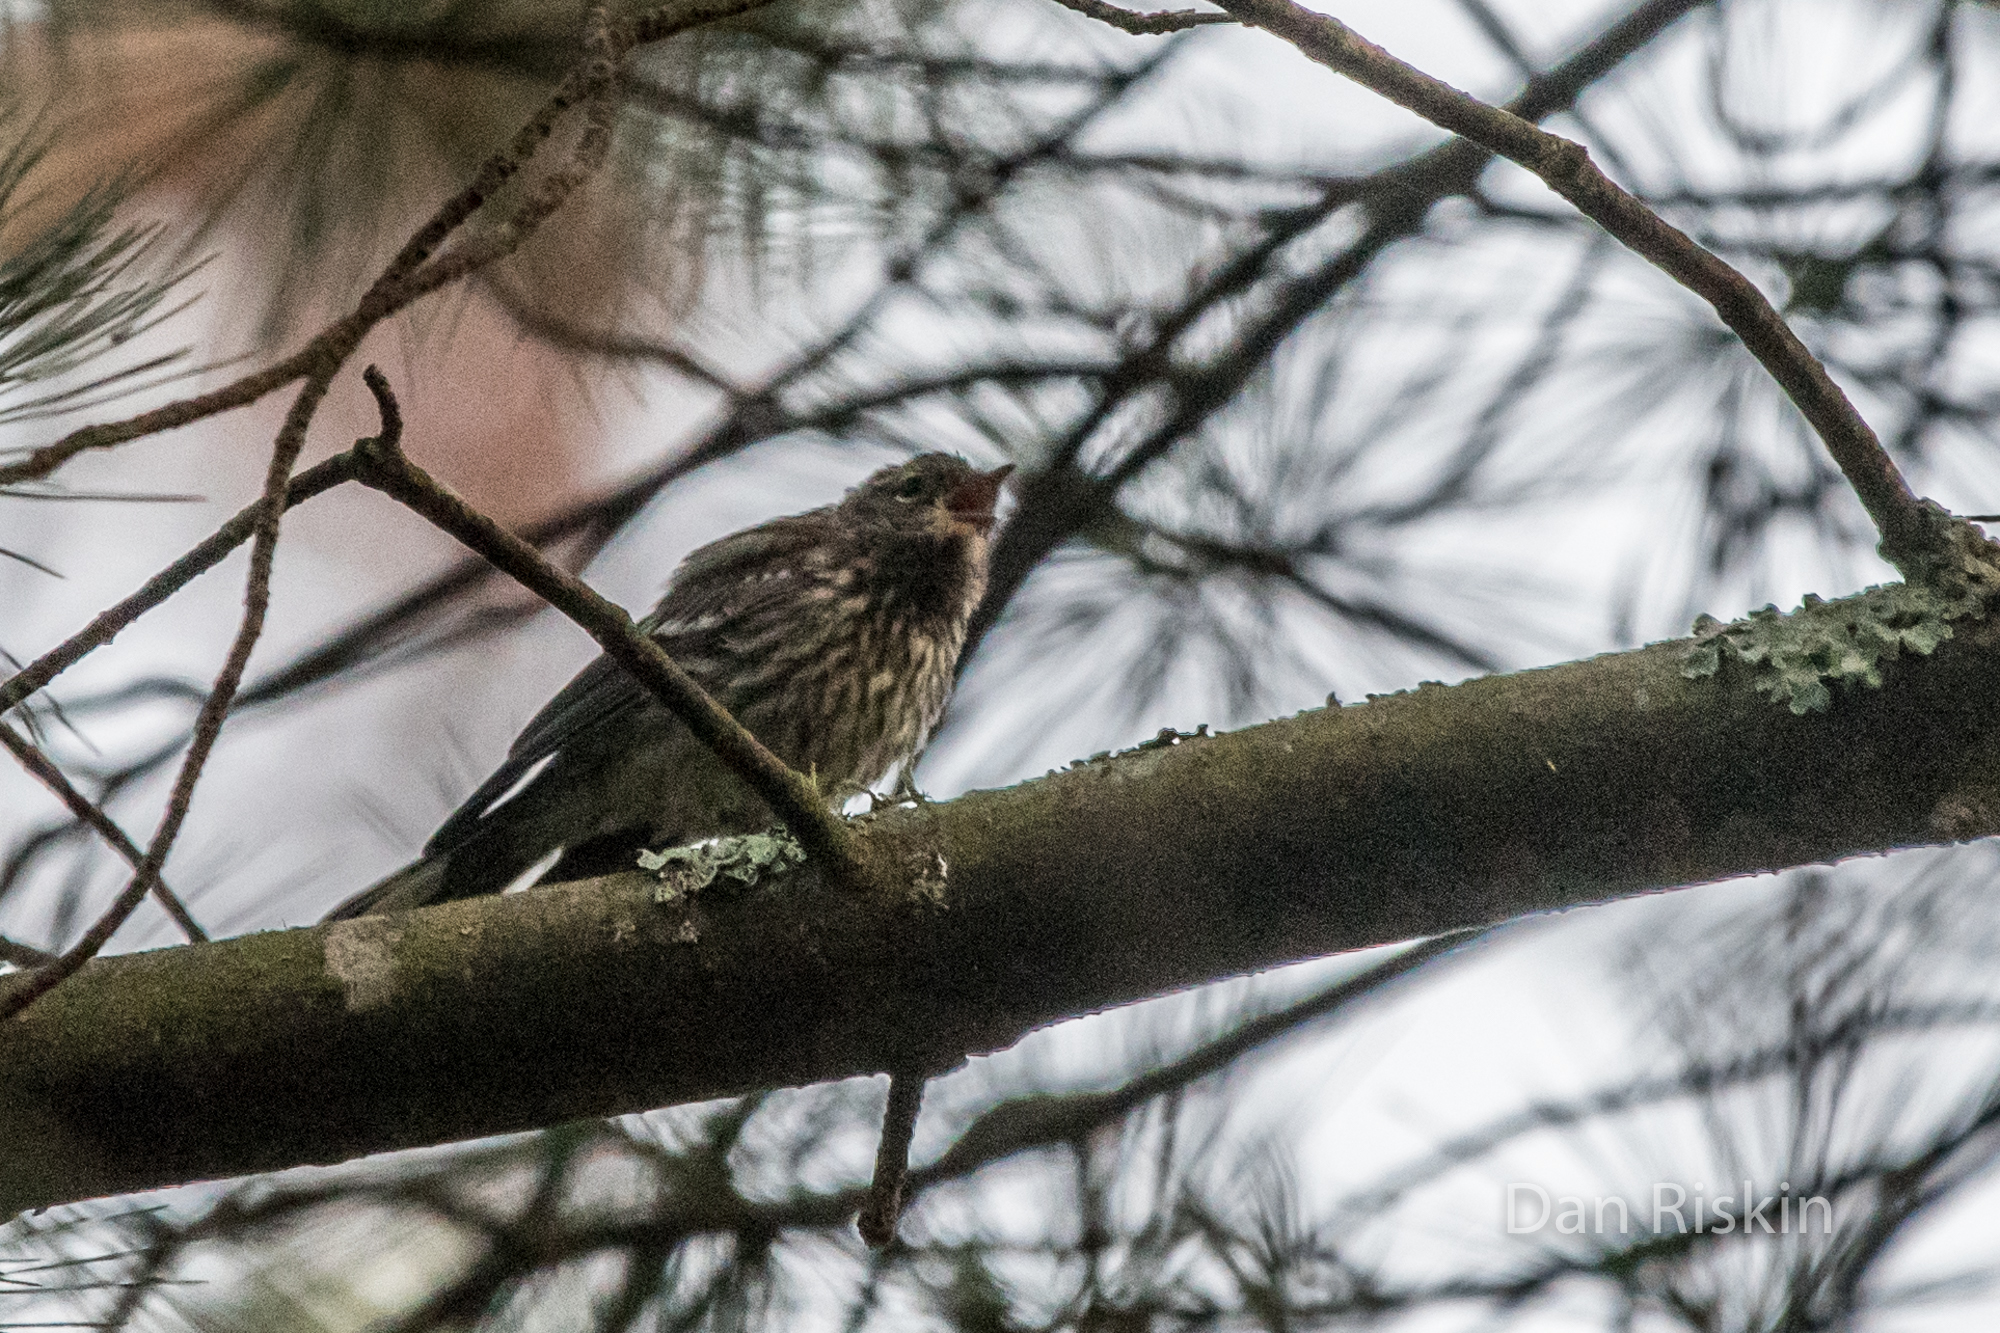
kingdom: Animalia
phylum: Chordata
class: Aves
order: Passeriformes
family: Parulidae
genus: Setophaga
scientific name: Setophaga coronata
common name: Myrtle warbler
